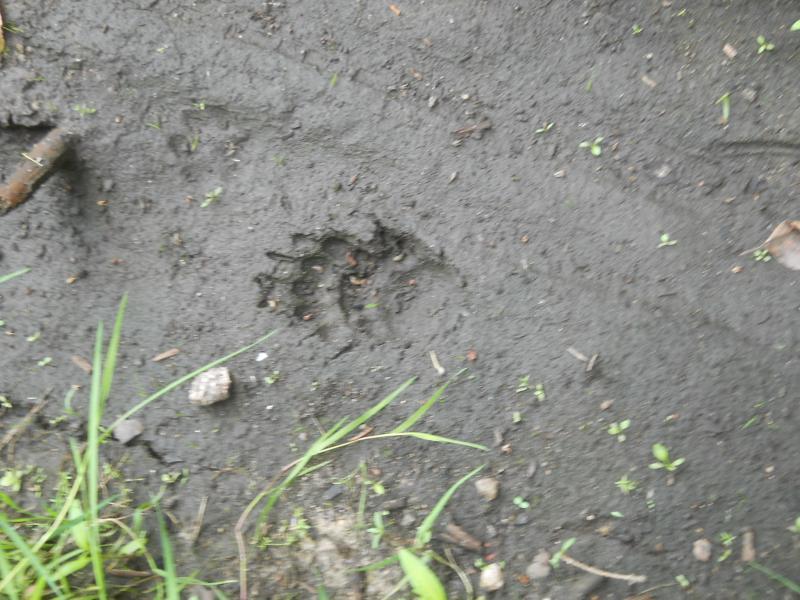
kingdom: Animalia
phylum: Chordata
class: Mammalia
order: Carnivora
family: Mustelidae
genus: Meles
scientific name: Meles meles
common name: Eurasian badger
